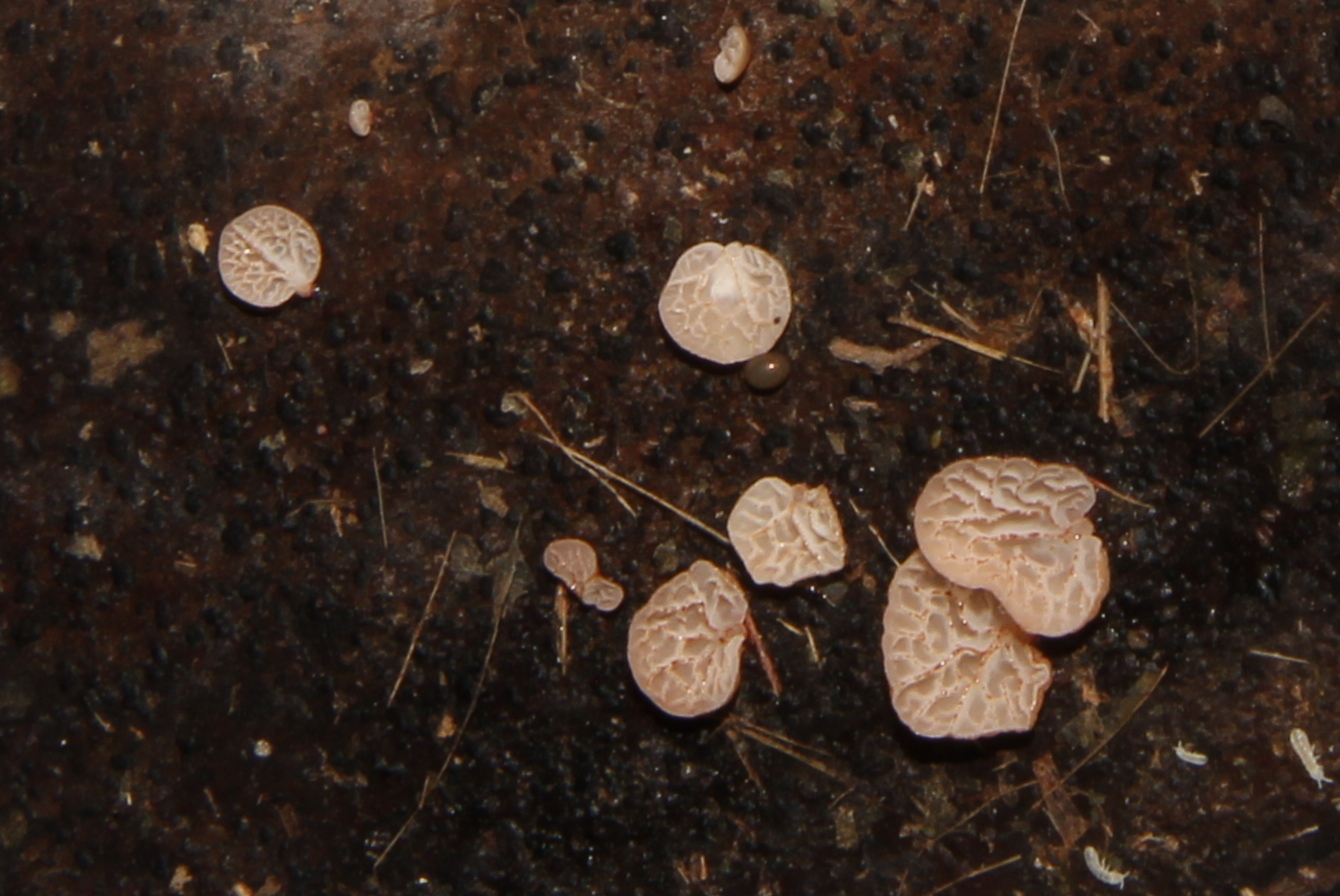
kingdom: Fungi
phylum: Basidiomycota
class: Agaricomycetes
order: Agaricales
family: Physalacriaceae
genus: Gloiocephala
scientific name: Gloiocephala rubescens
